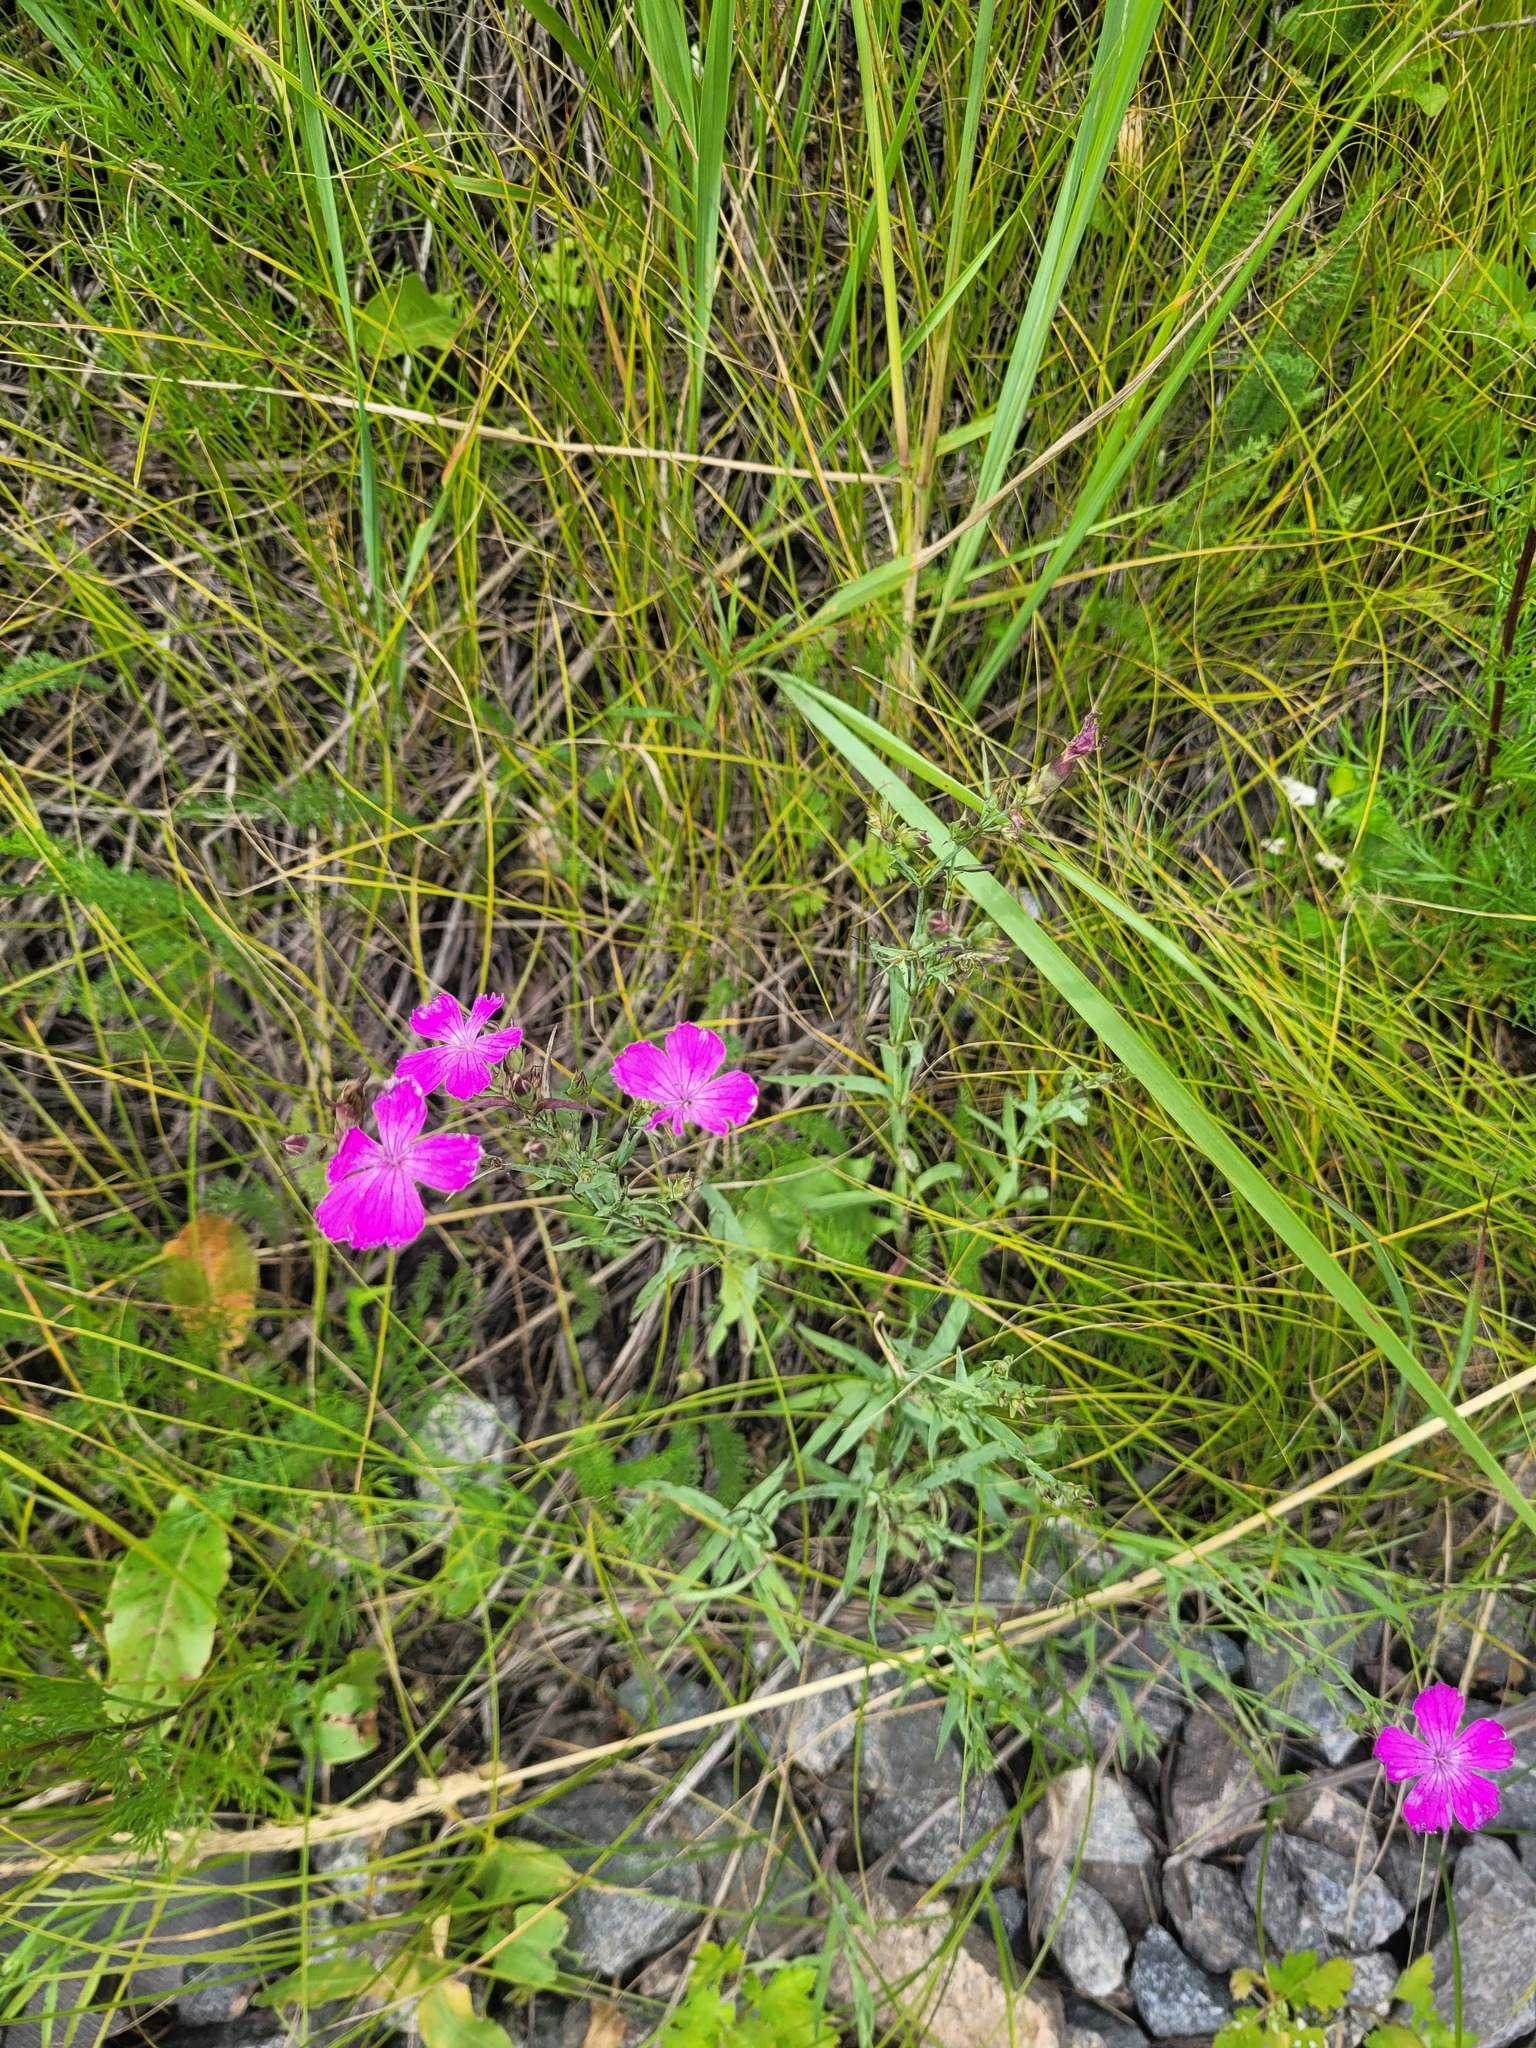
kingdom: Plantae
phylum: Tracheophyta
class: Magnoliopsida
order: Caryophyllales
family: Caryophyllaceae
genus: Dianthus
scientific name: Dianthus chinensis
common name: Rainbow pink
